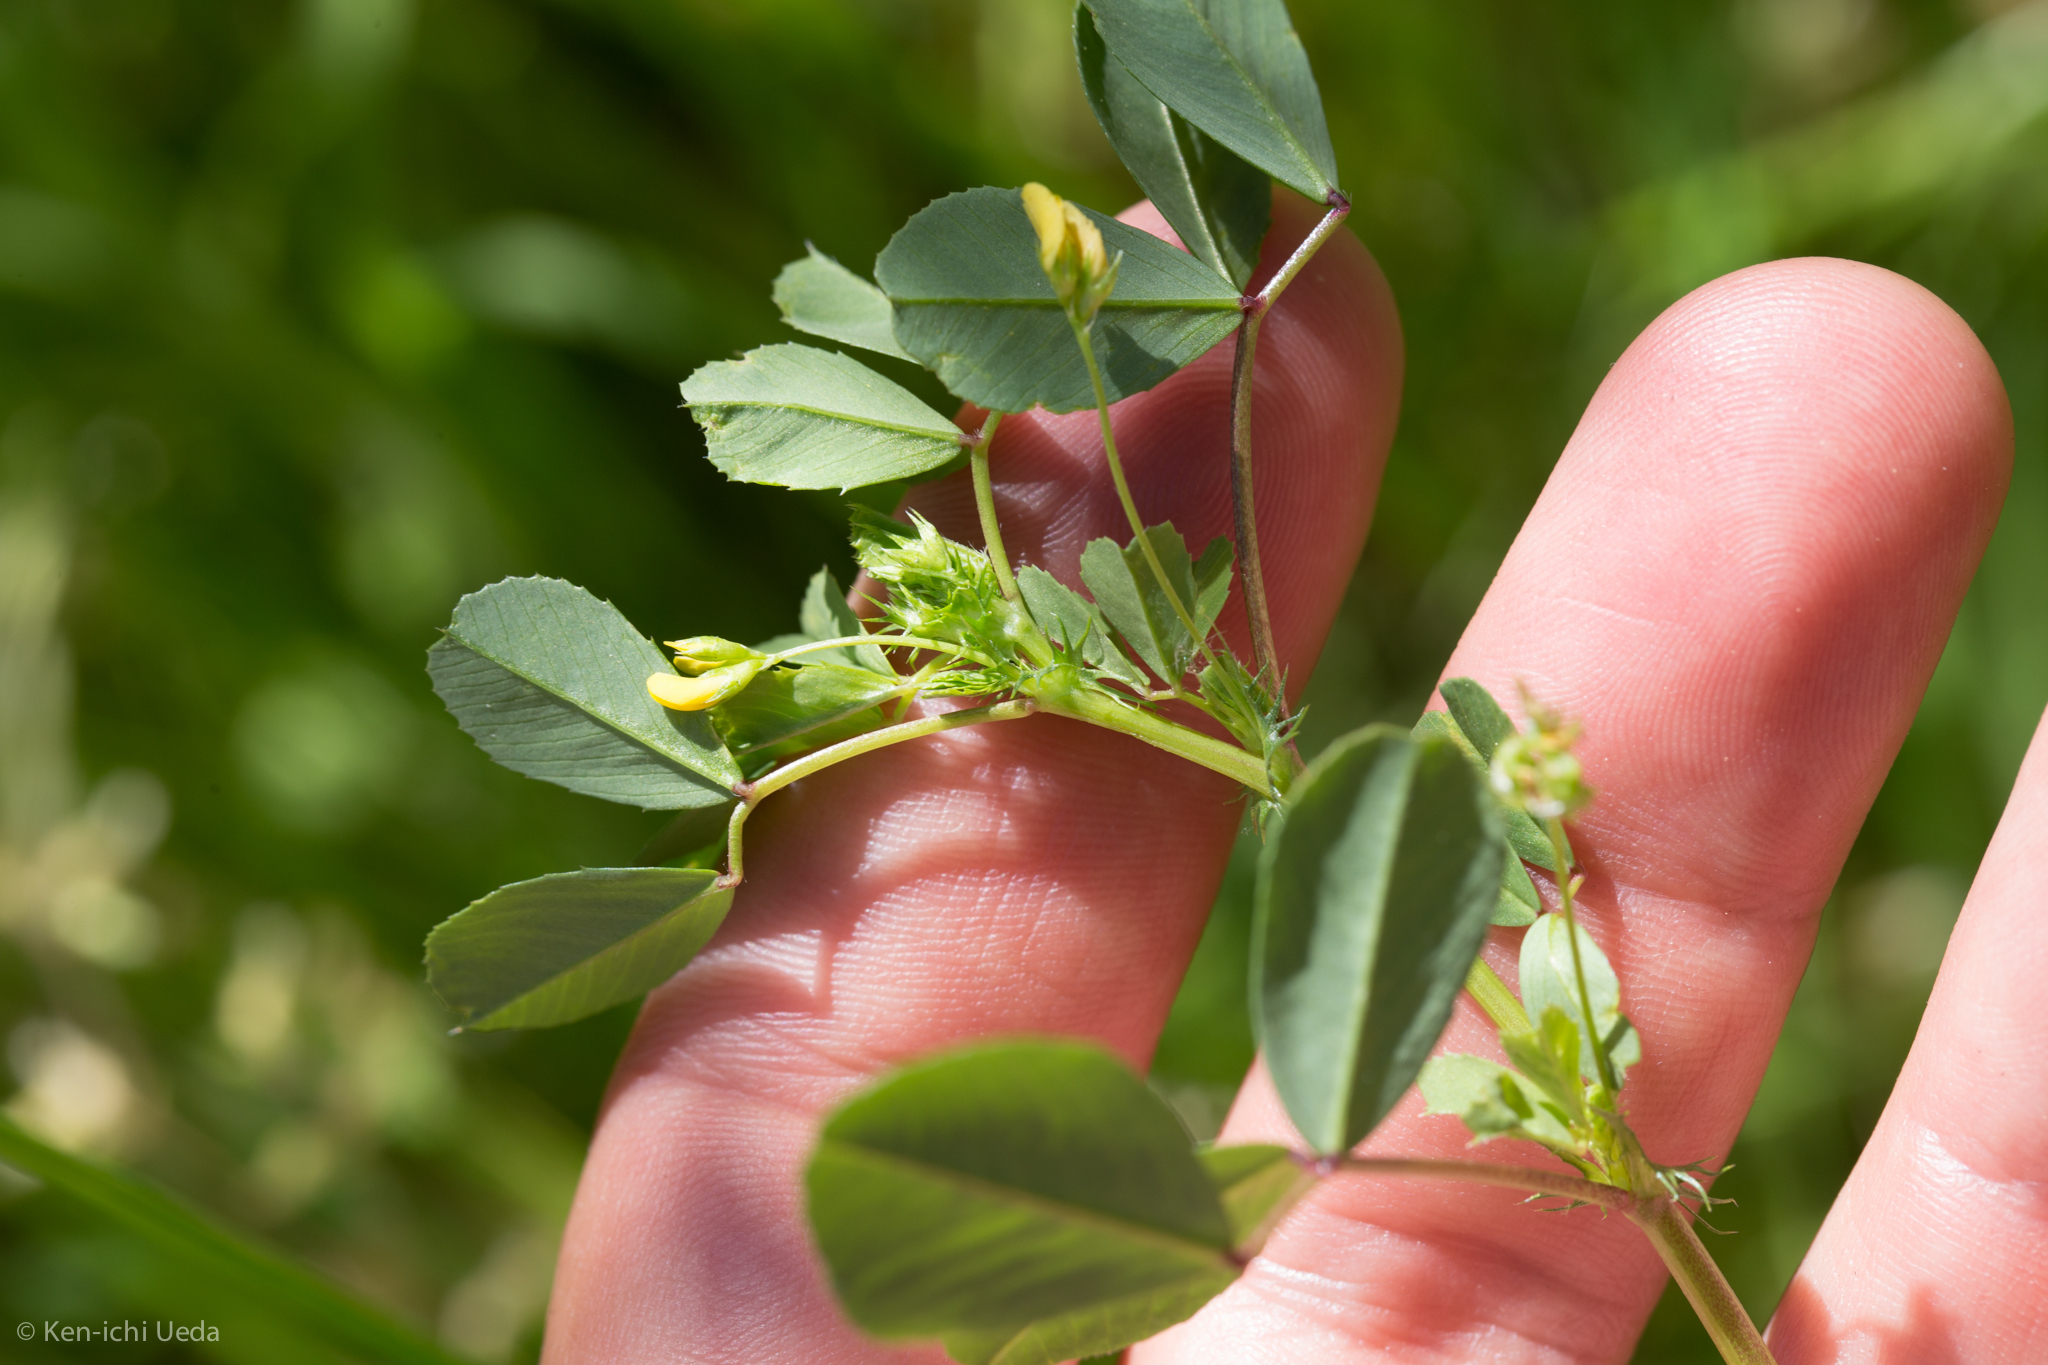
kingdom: Plantae
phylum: Tracheophyta
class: Magnoliopsida
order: Fabales
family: Fabaceae
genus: Medicago
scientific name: Medicago polymorpha
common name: Burclover
